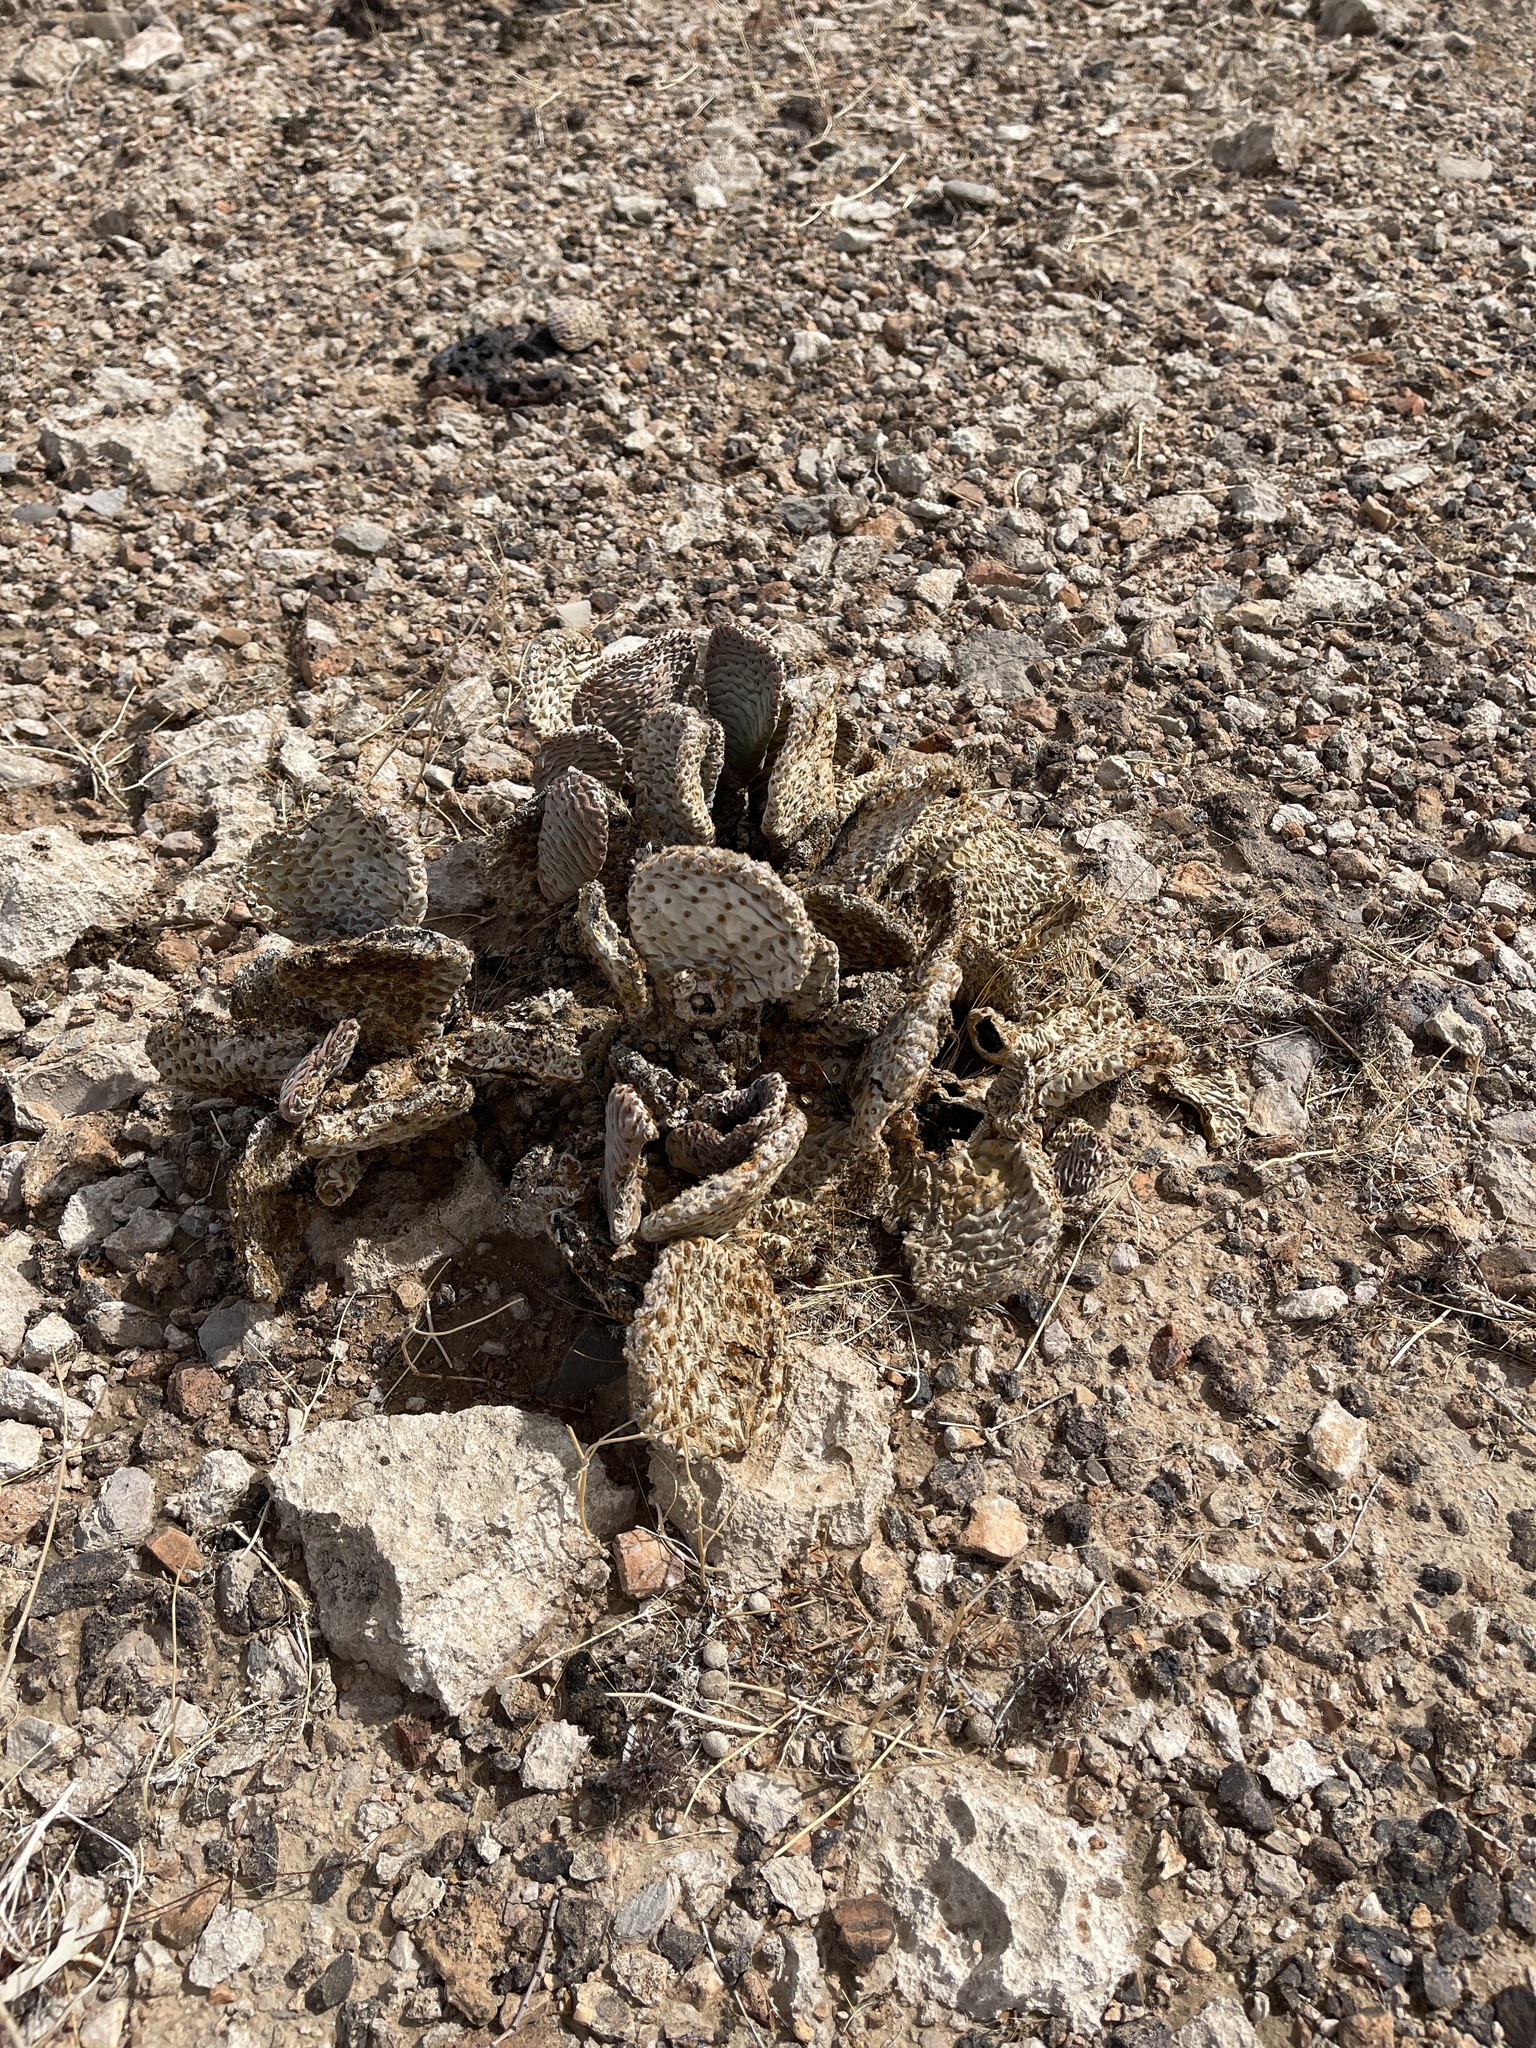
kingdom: Plantae
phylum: Tracheophyta
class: Magnoliopsida
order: Caryophyllales
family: Cactaceae
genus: Opuntia
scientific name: Opuntia basilaris
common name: Beavertail prickly-pear
